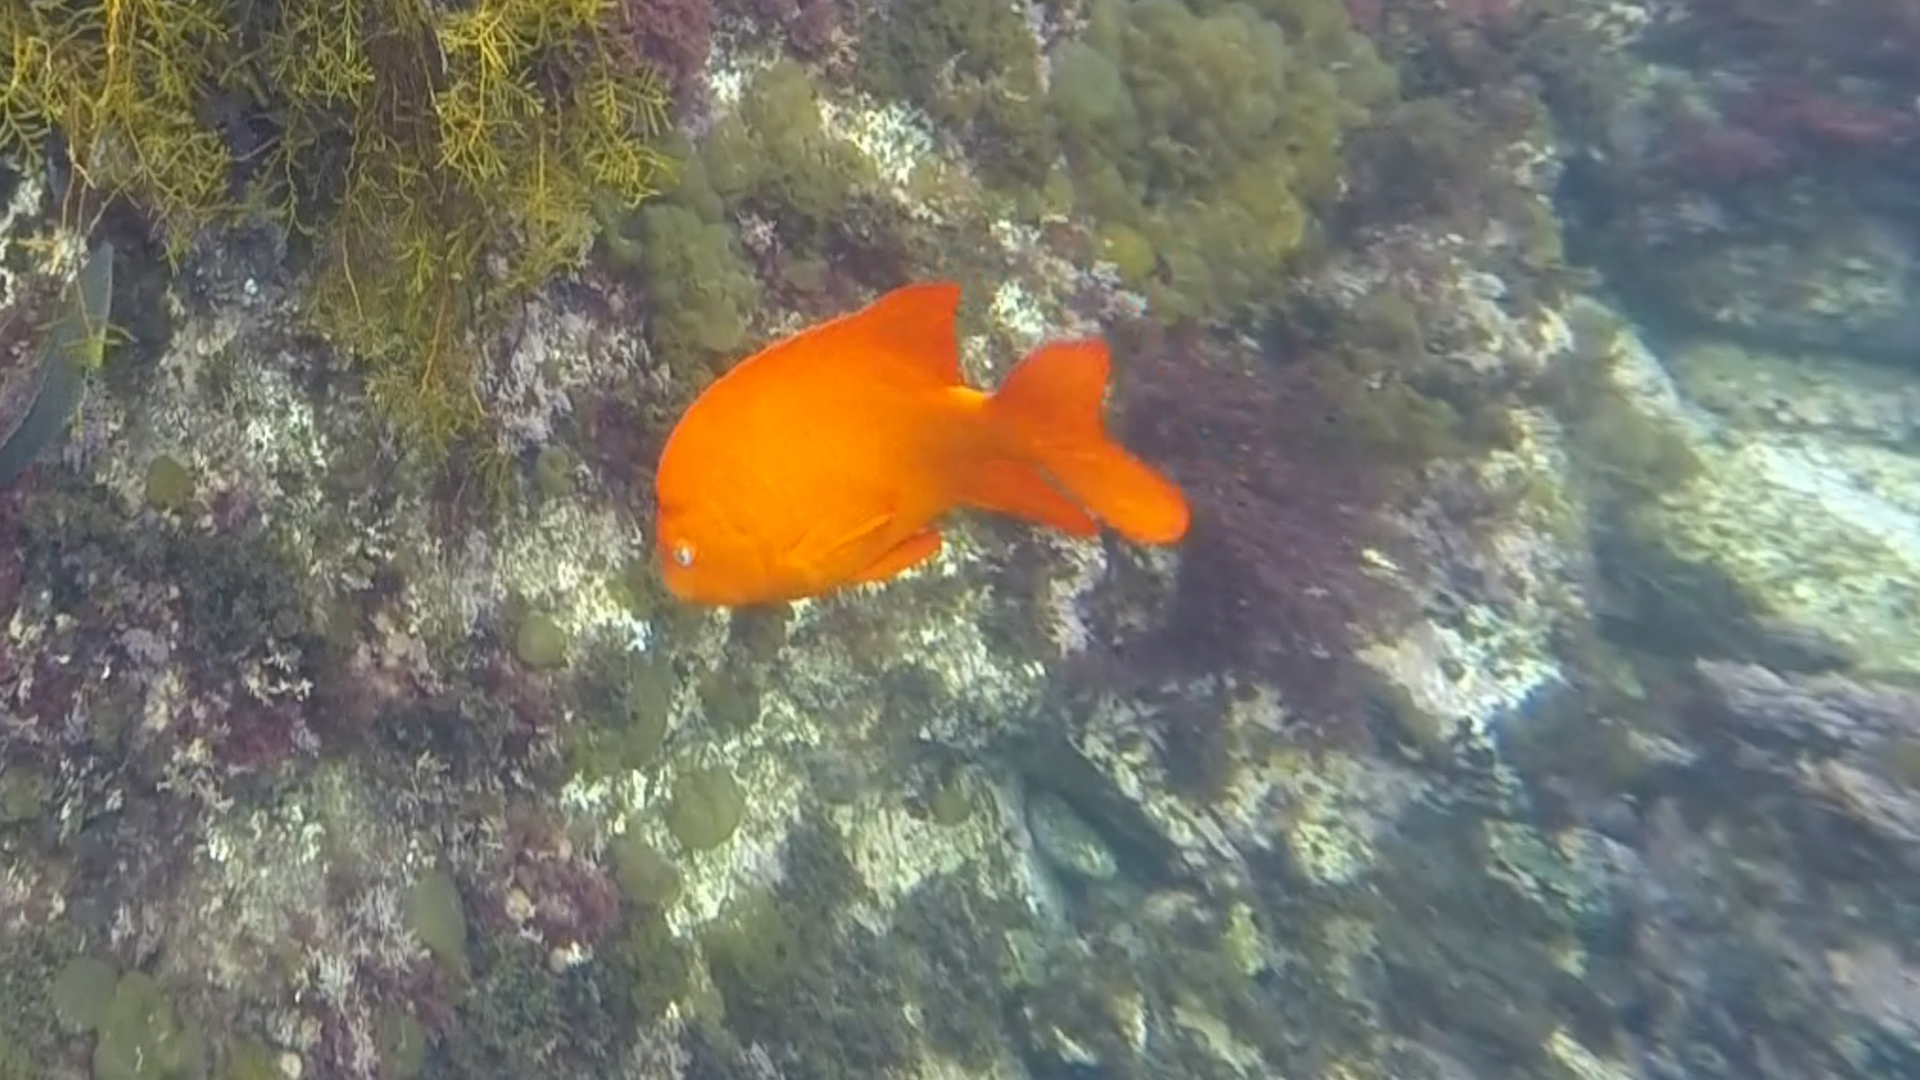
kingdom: Animalia
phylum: Chordata
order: Perciformes
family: Pomacentridae
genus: Hypsypops
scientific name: Hypsypops rubicundus
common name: Garibaldi
